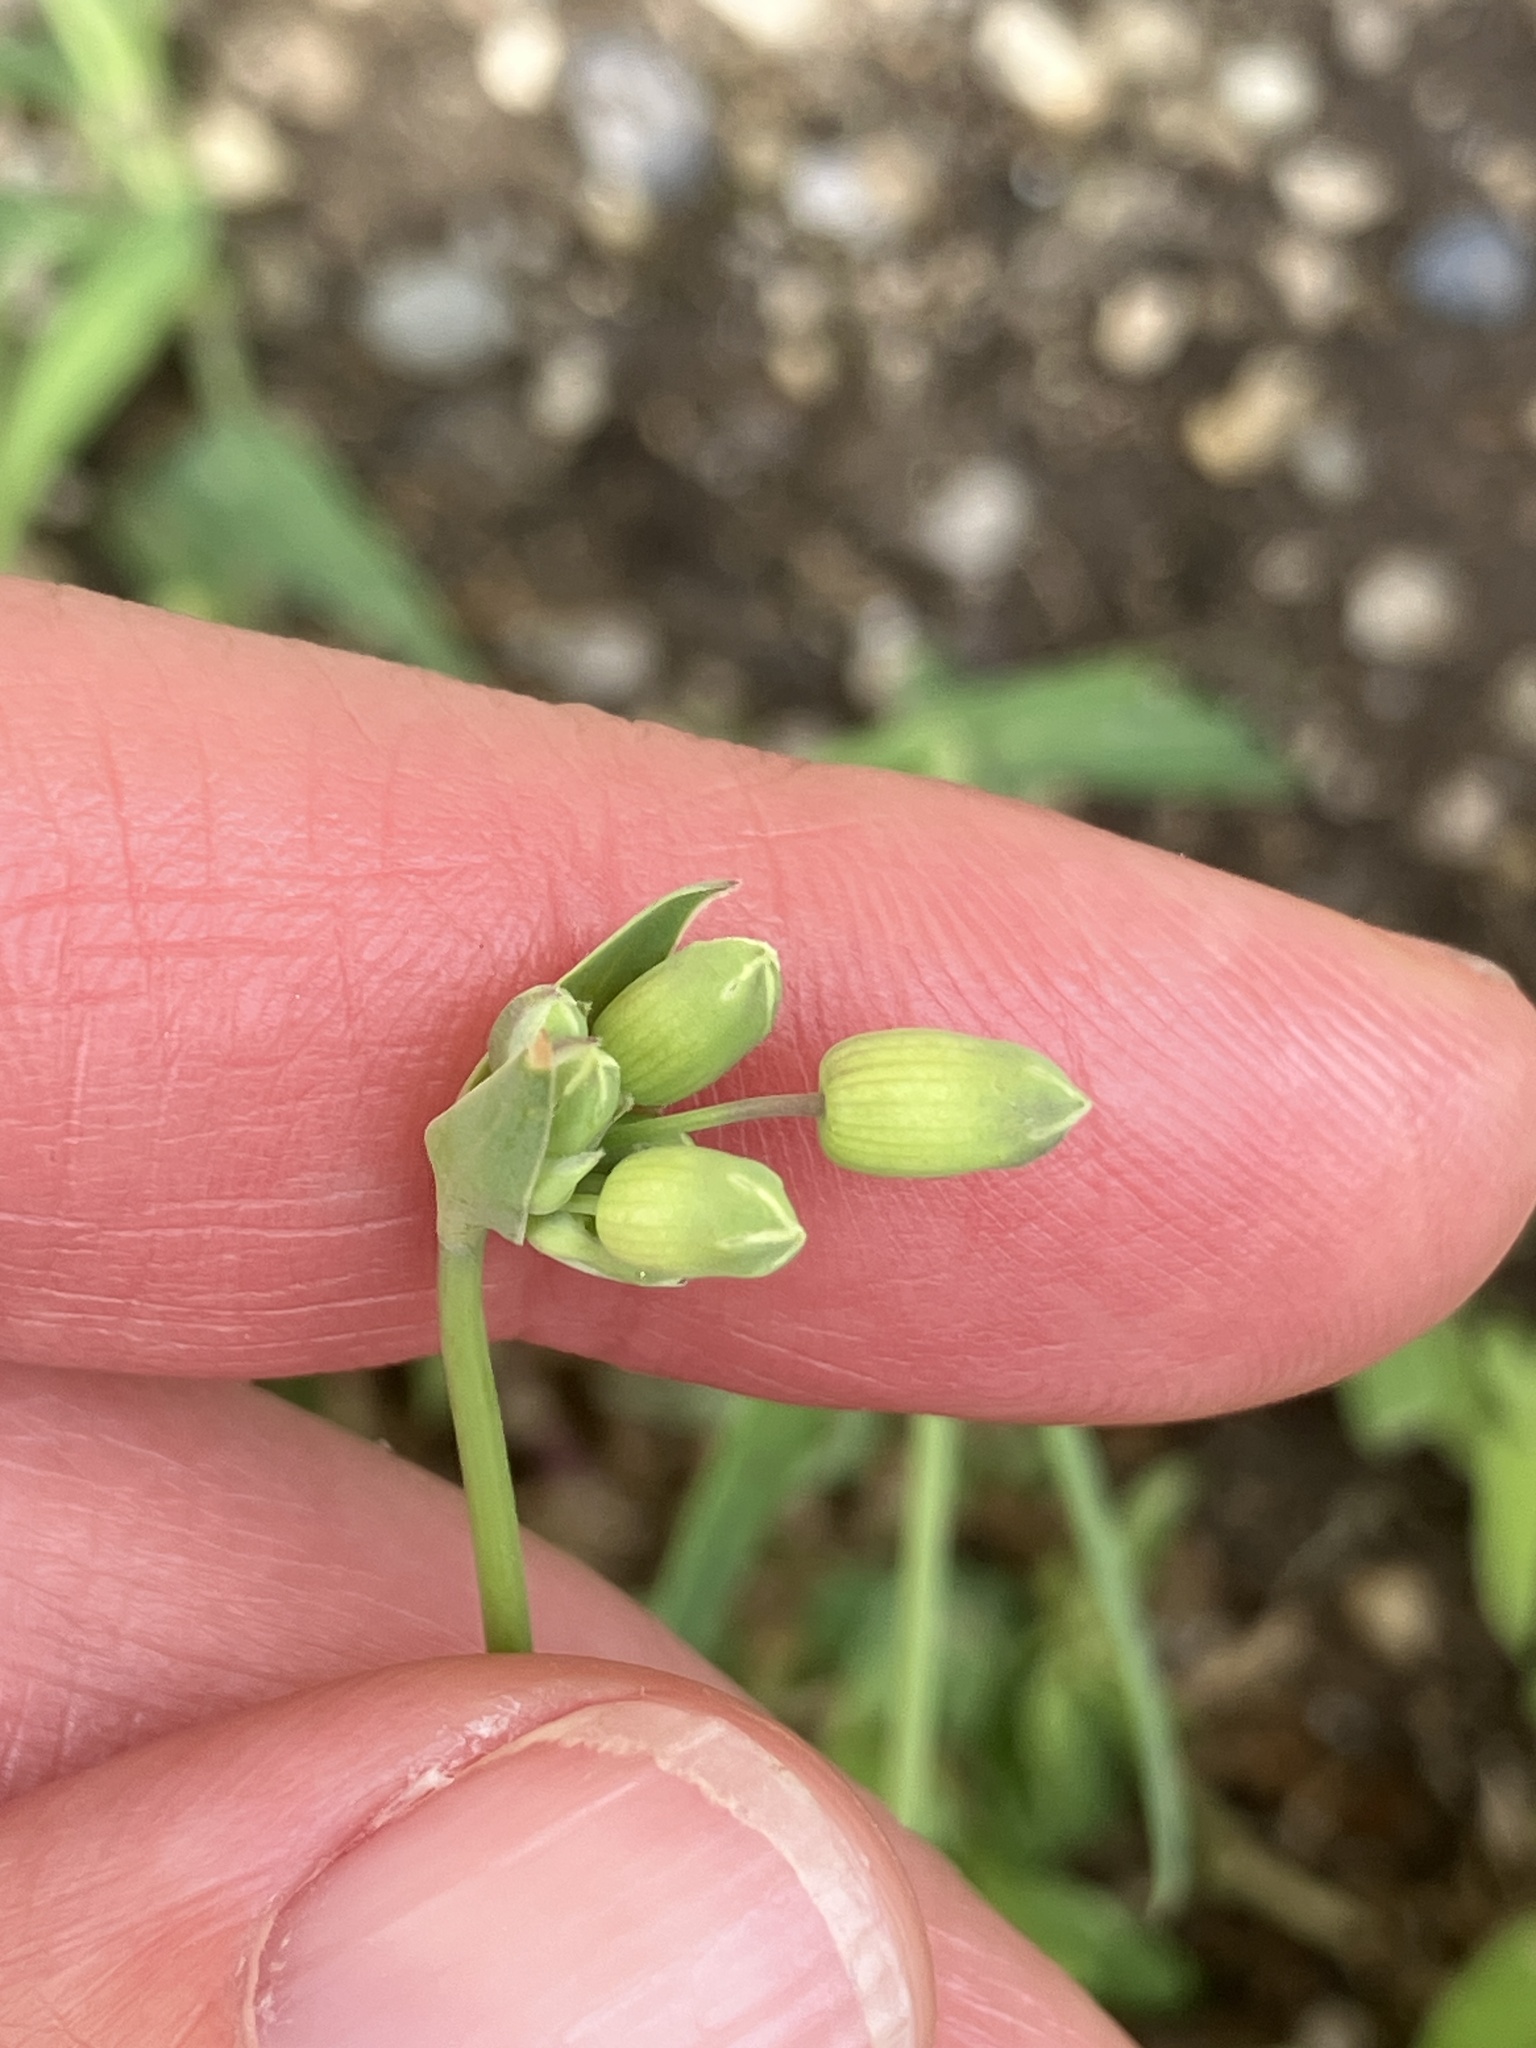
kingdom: Plantae
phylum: Tracheophyta
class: Magnoliopsida
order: Caryophyllales
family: Caryophyllaceae
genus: Silene
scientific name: Silene vulgaris
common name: Bladder campion
